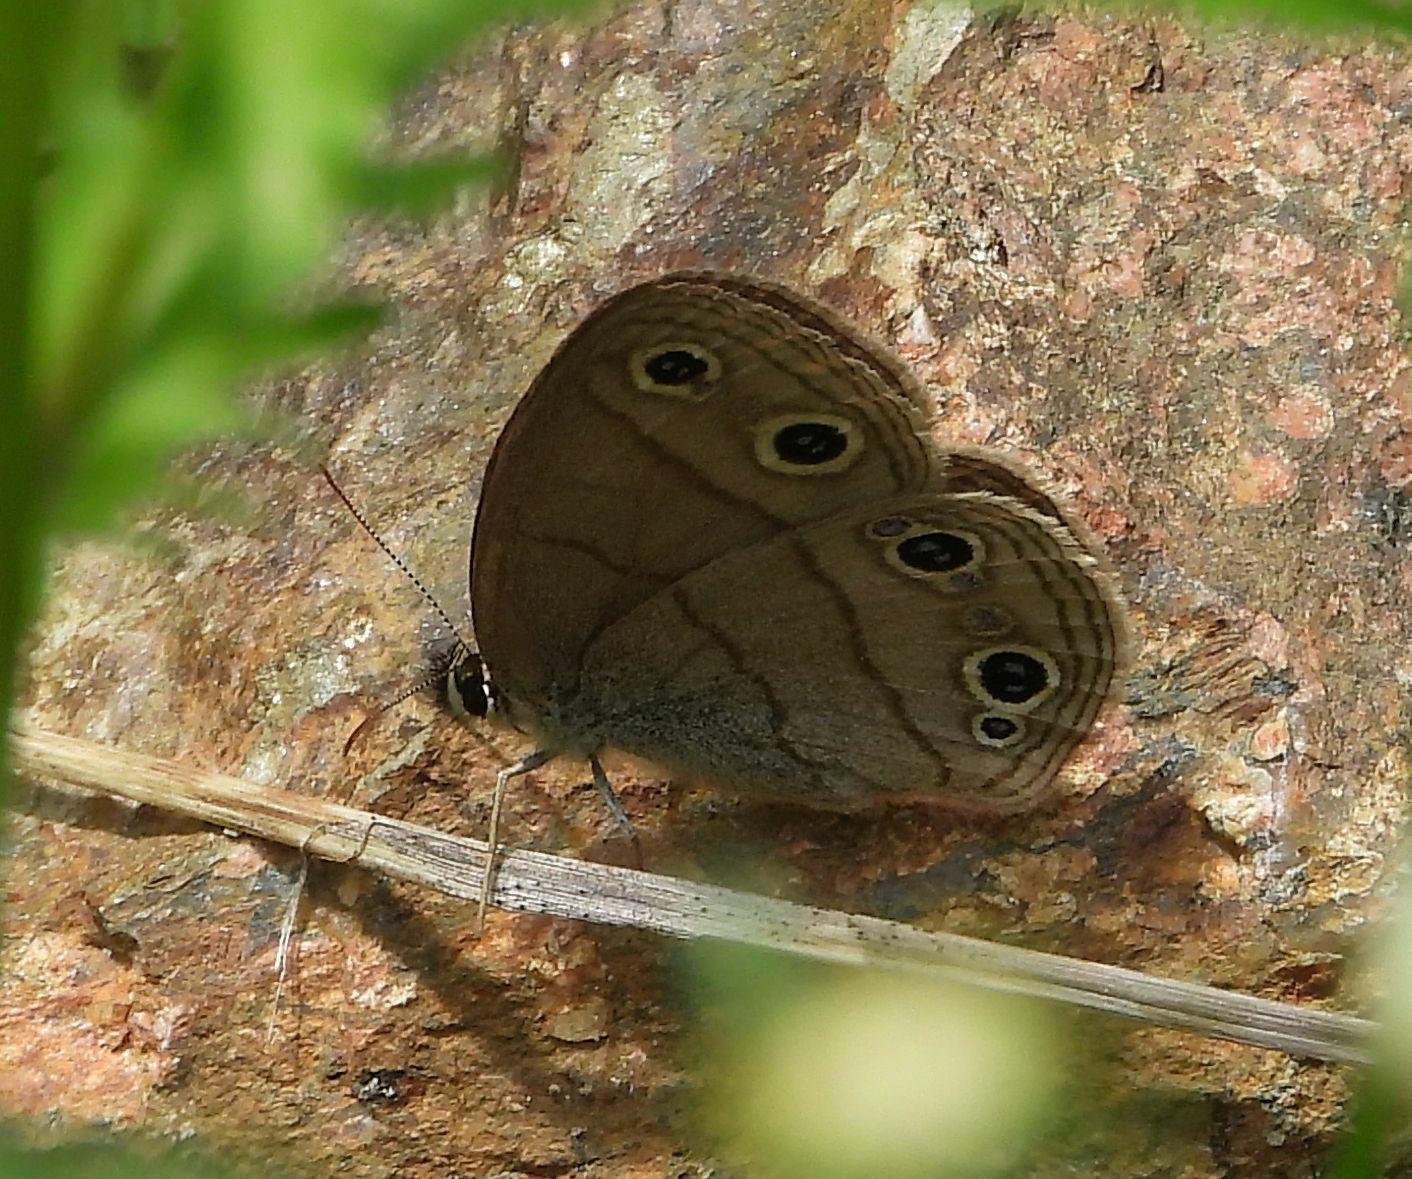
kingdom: Animalia
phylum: Arthropoda
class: Insecta
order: Lepidoptera
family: Nymphalidae
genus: Euptychia
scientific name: Euptychia cymela
